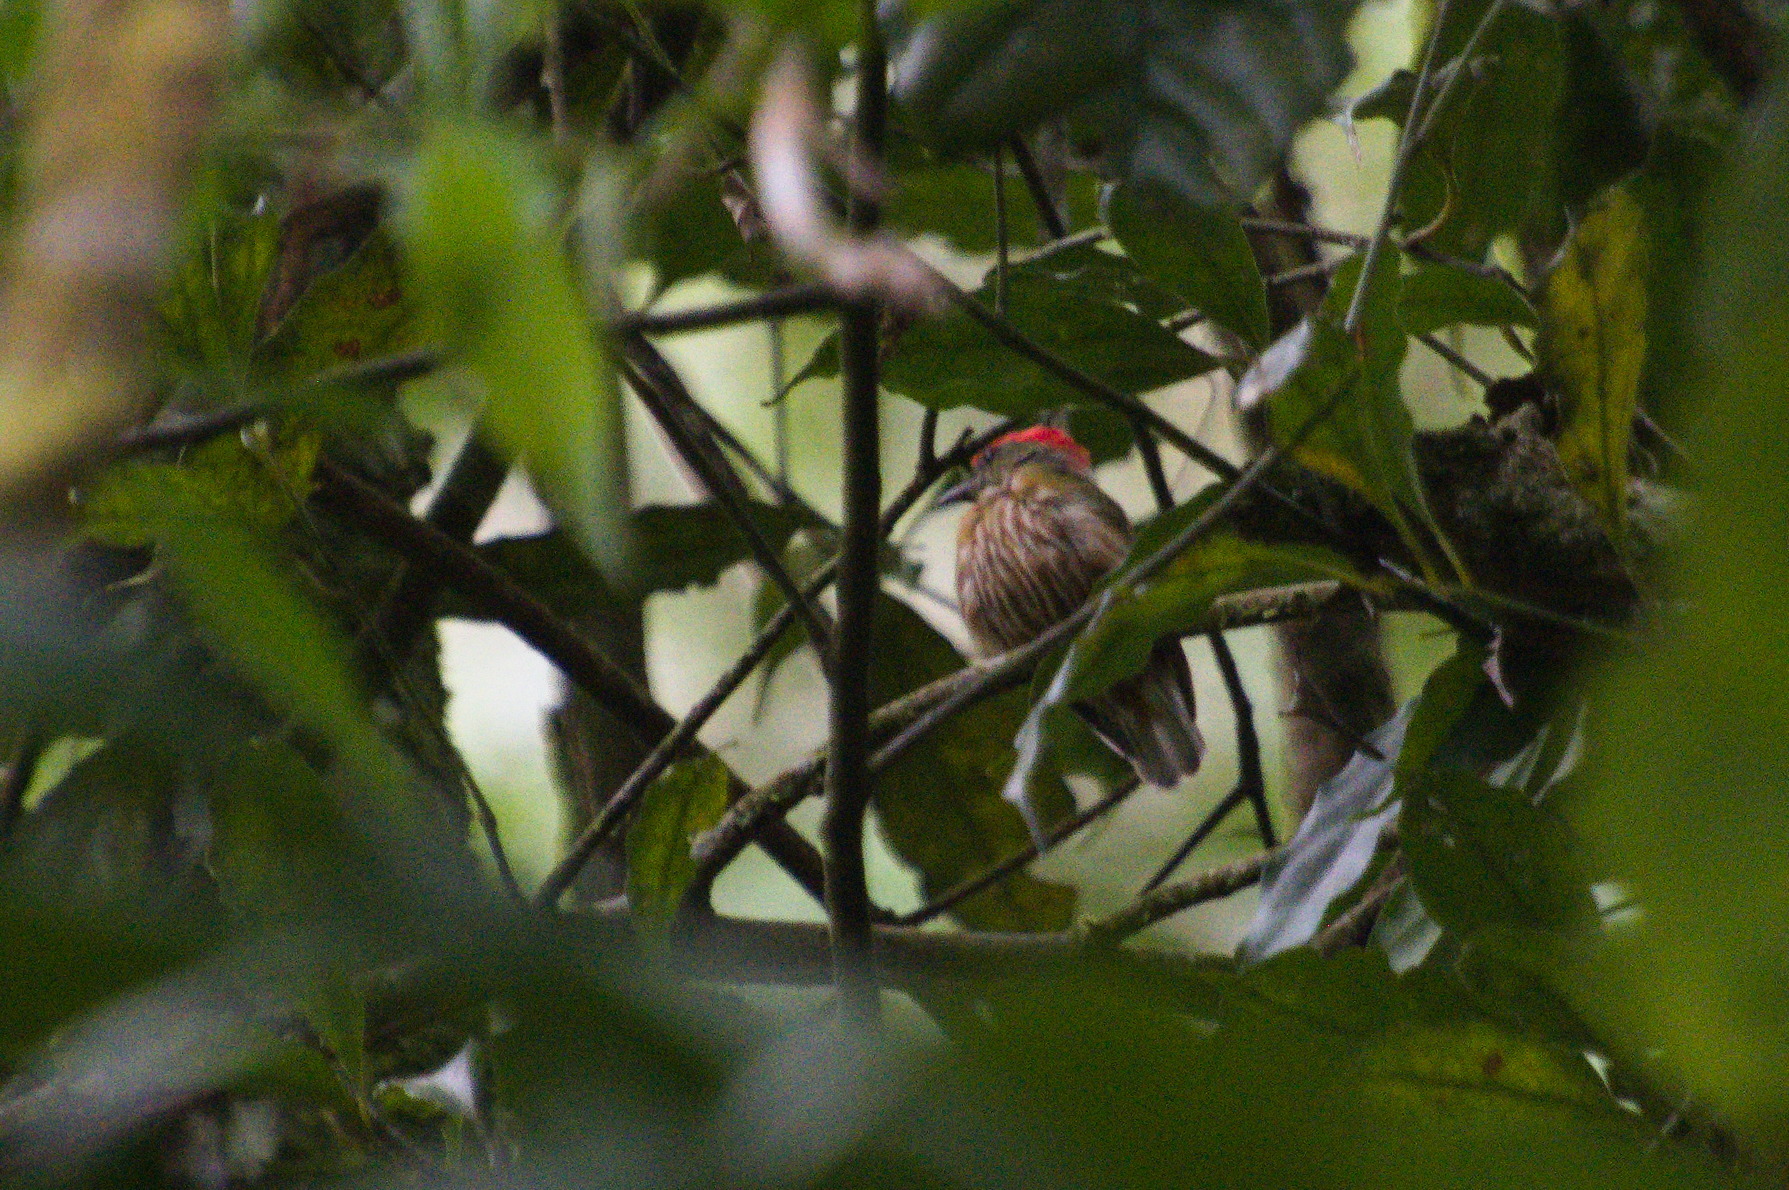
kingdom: Animalia
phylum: Chordata
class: Aves
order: Passeriformes
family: Pipridae
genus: Machaeropterus
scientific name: Machaeropterus striolatus
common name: Striolated manakin
